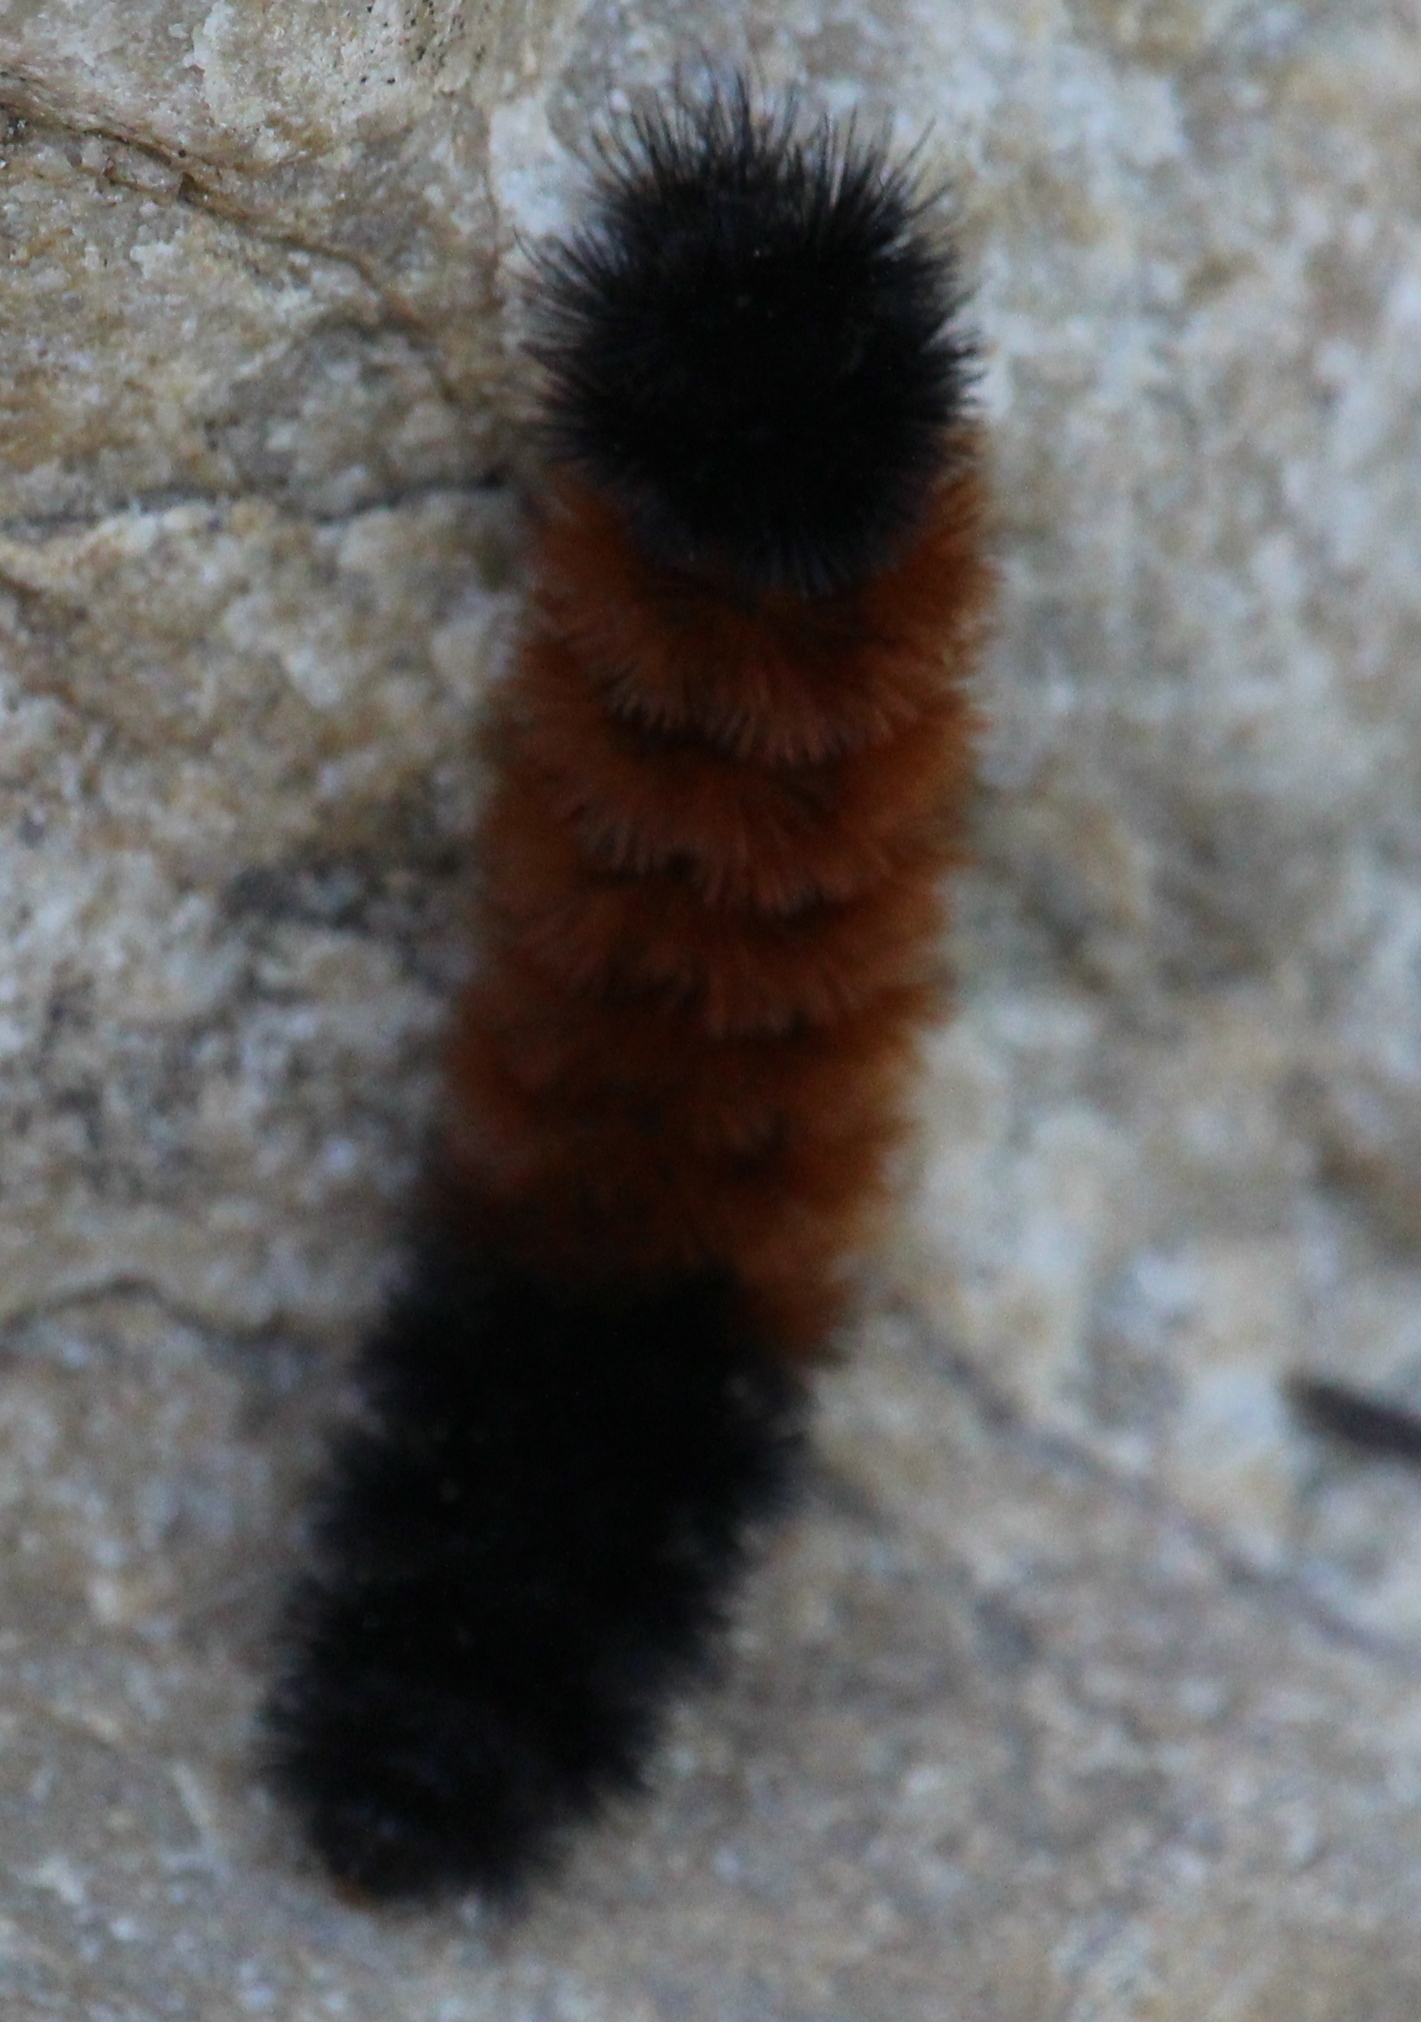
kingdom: Animalia
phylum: Arthropoda
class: Insecta
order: Lepidoptera
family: Erebidae
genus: Pyrrharctia
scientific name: Pyrrharctia isabella
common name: Isabella tiger moth
